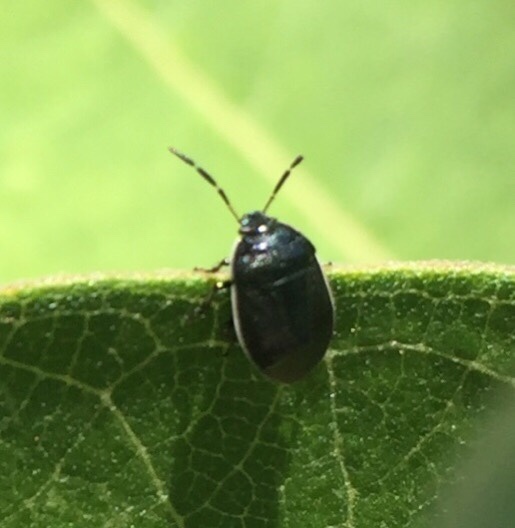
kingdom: Animalia
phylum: Arthropoda
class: Insecta
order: Hemiptera
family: Cydnidae
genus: Sehirus
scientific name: Sehirus cinctus
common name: White-margined burrower bug
